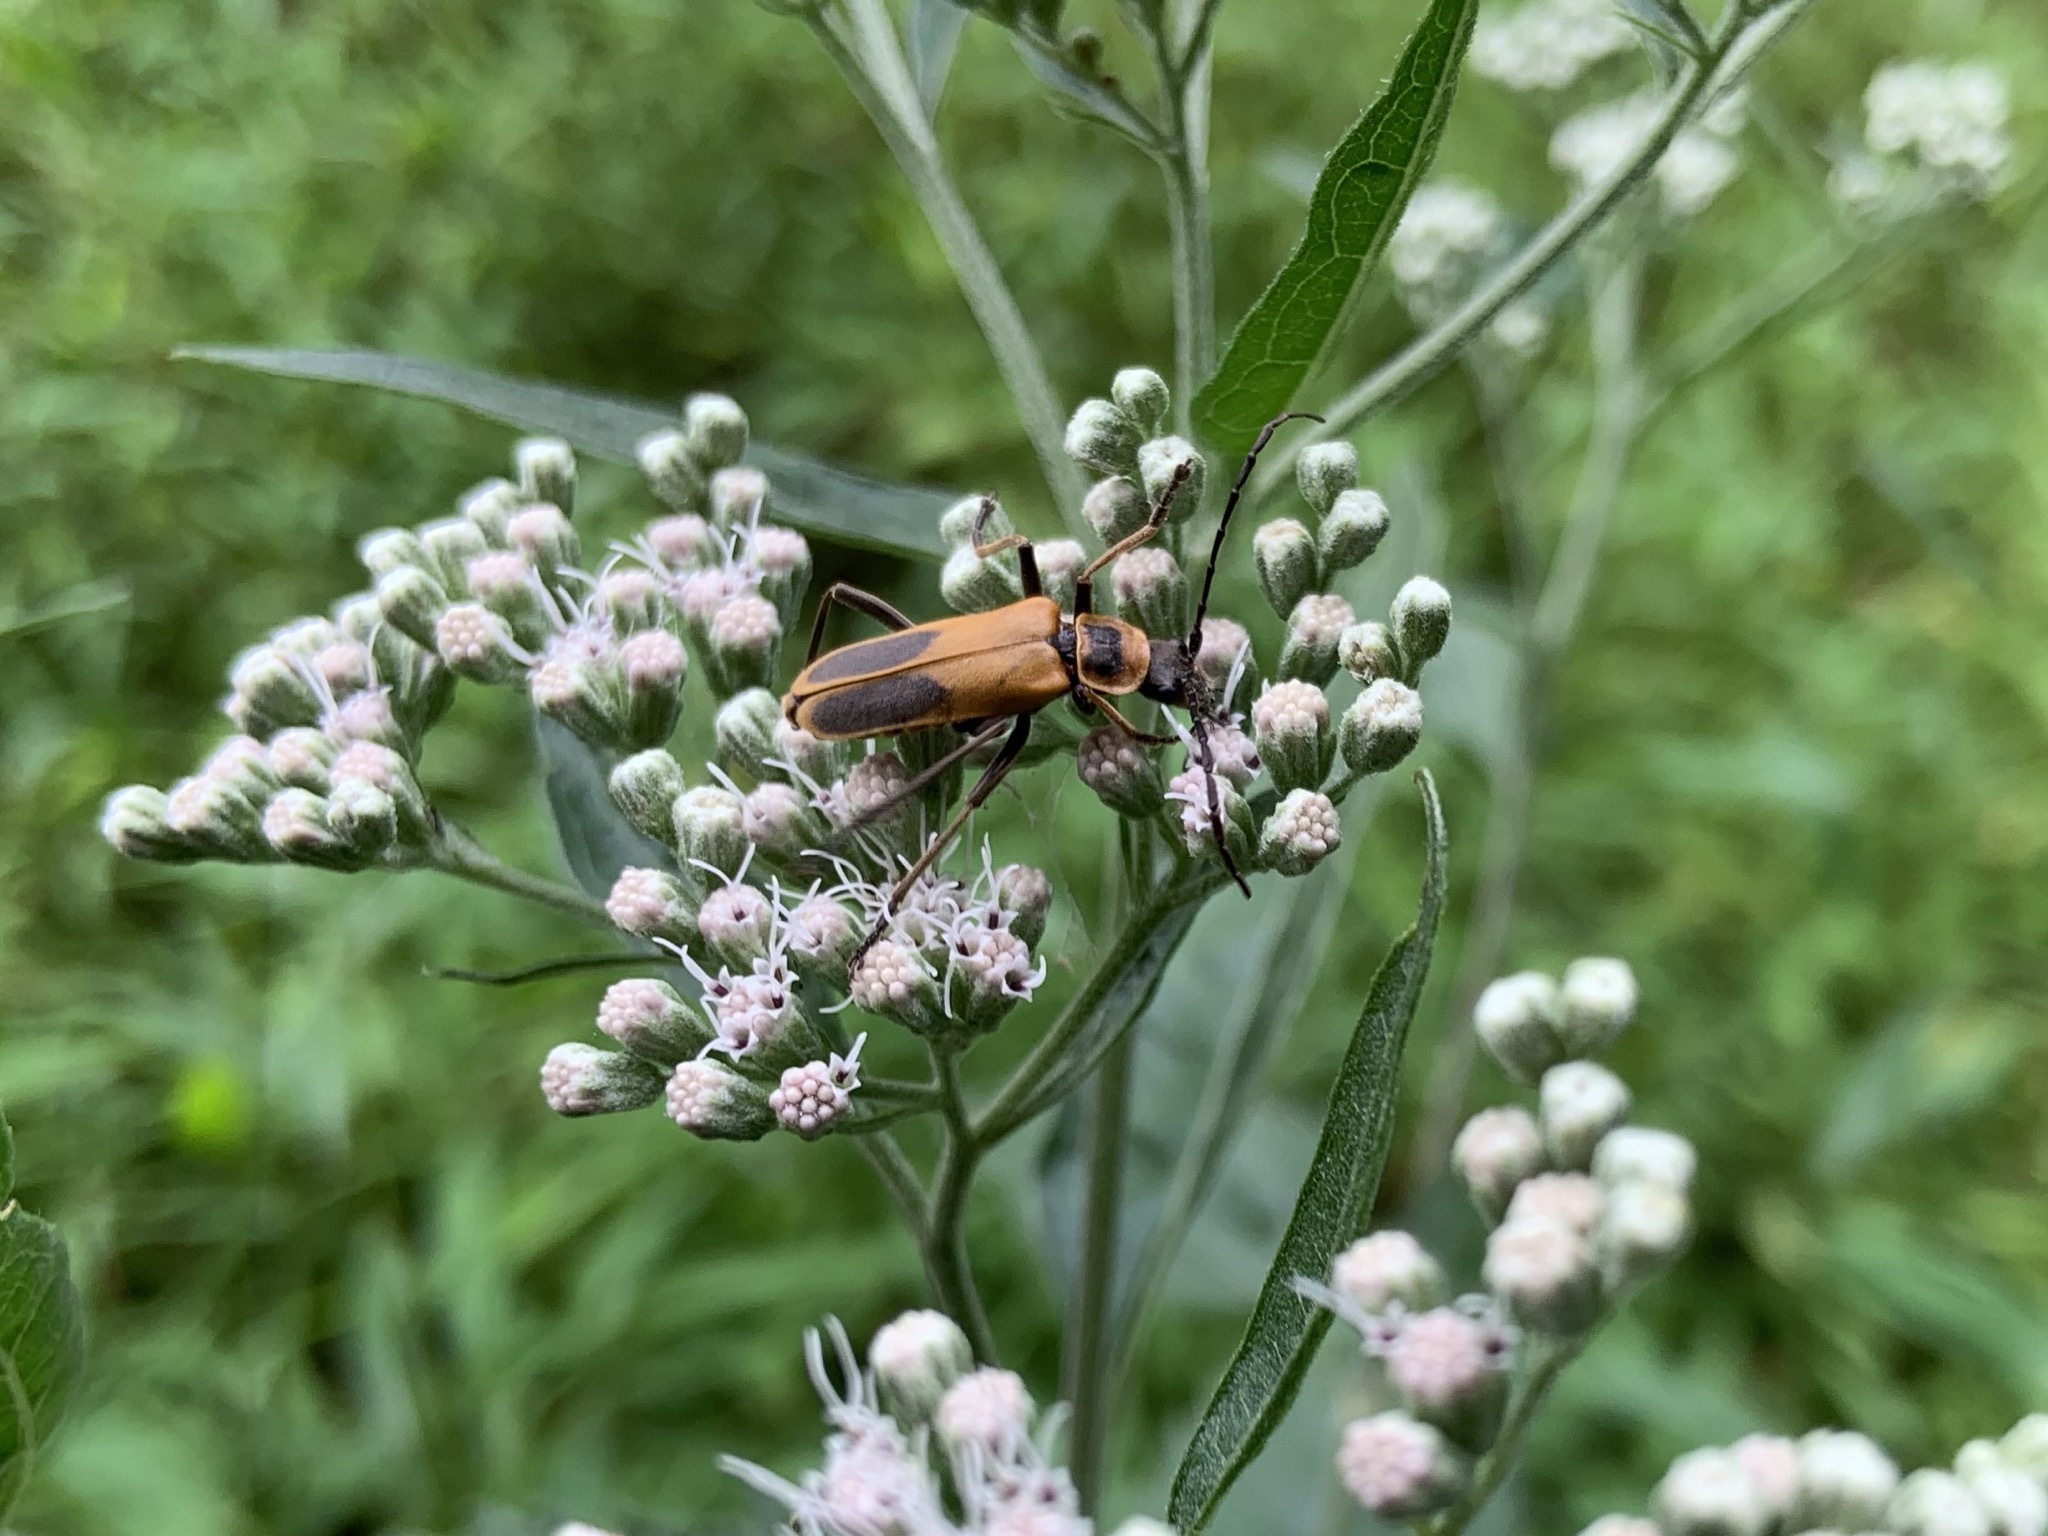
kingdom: Animalia
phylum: Arthropoda
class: Insecta
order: Coleoptera
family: Cantharidae
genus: Chauliognathus
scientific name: Chauliognathus pensylvanicus
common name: Goldenrod soldier beetle
